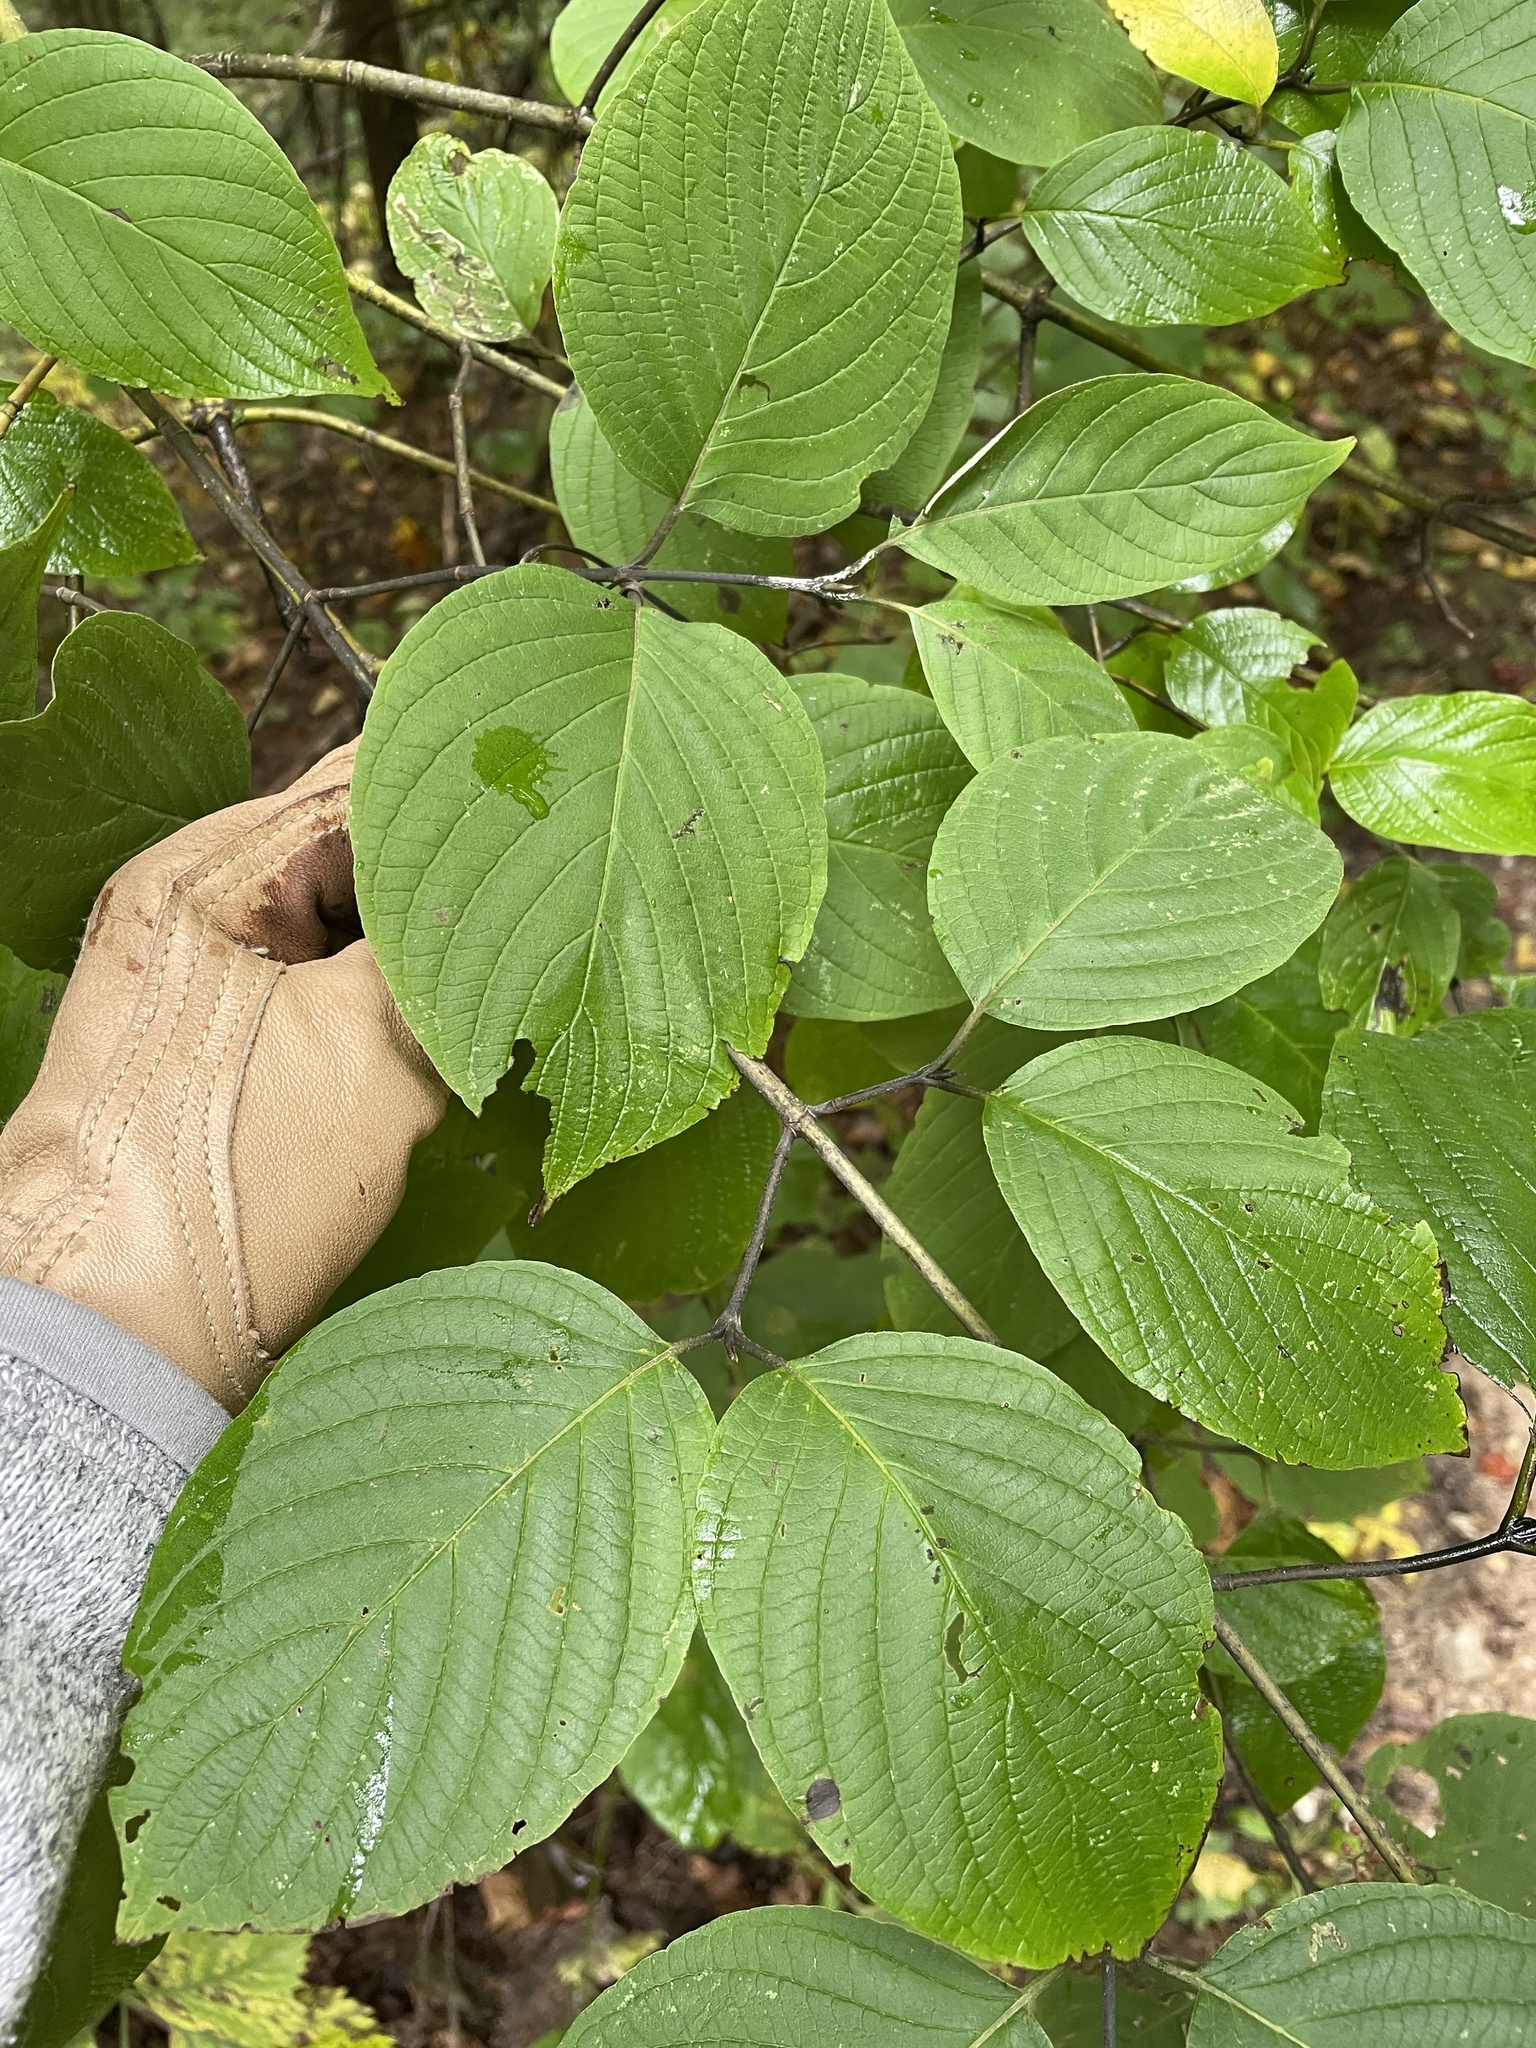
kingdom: Plantae
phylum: Tracheophyta
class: Magnoliopsida
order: Cornales
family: Cornaceae
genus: Cornus
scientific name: Cornus rugosa
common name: Round-leaf dogwood
